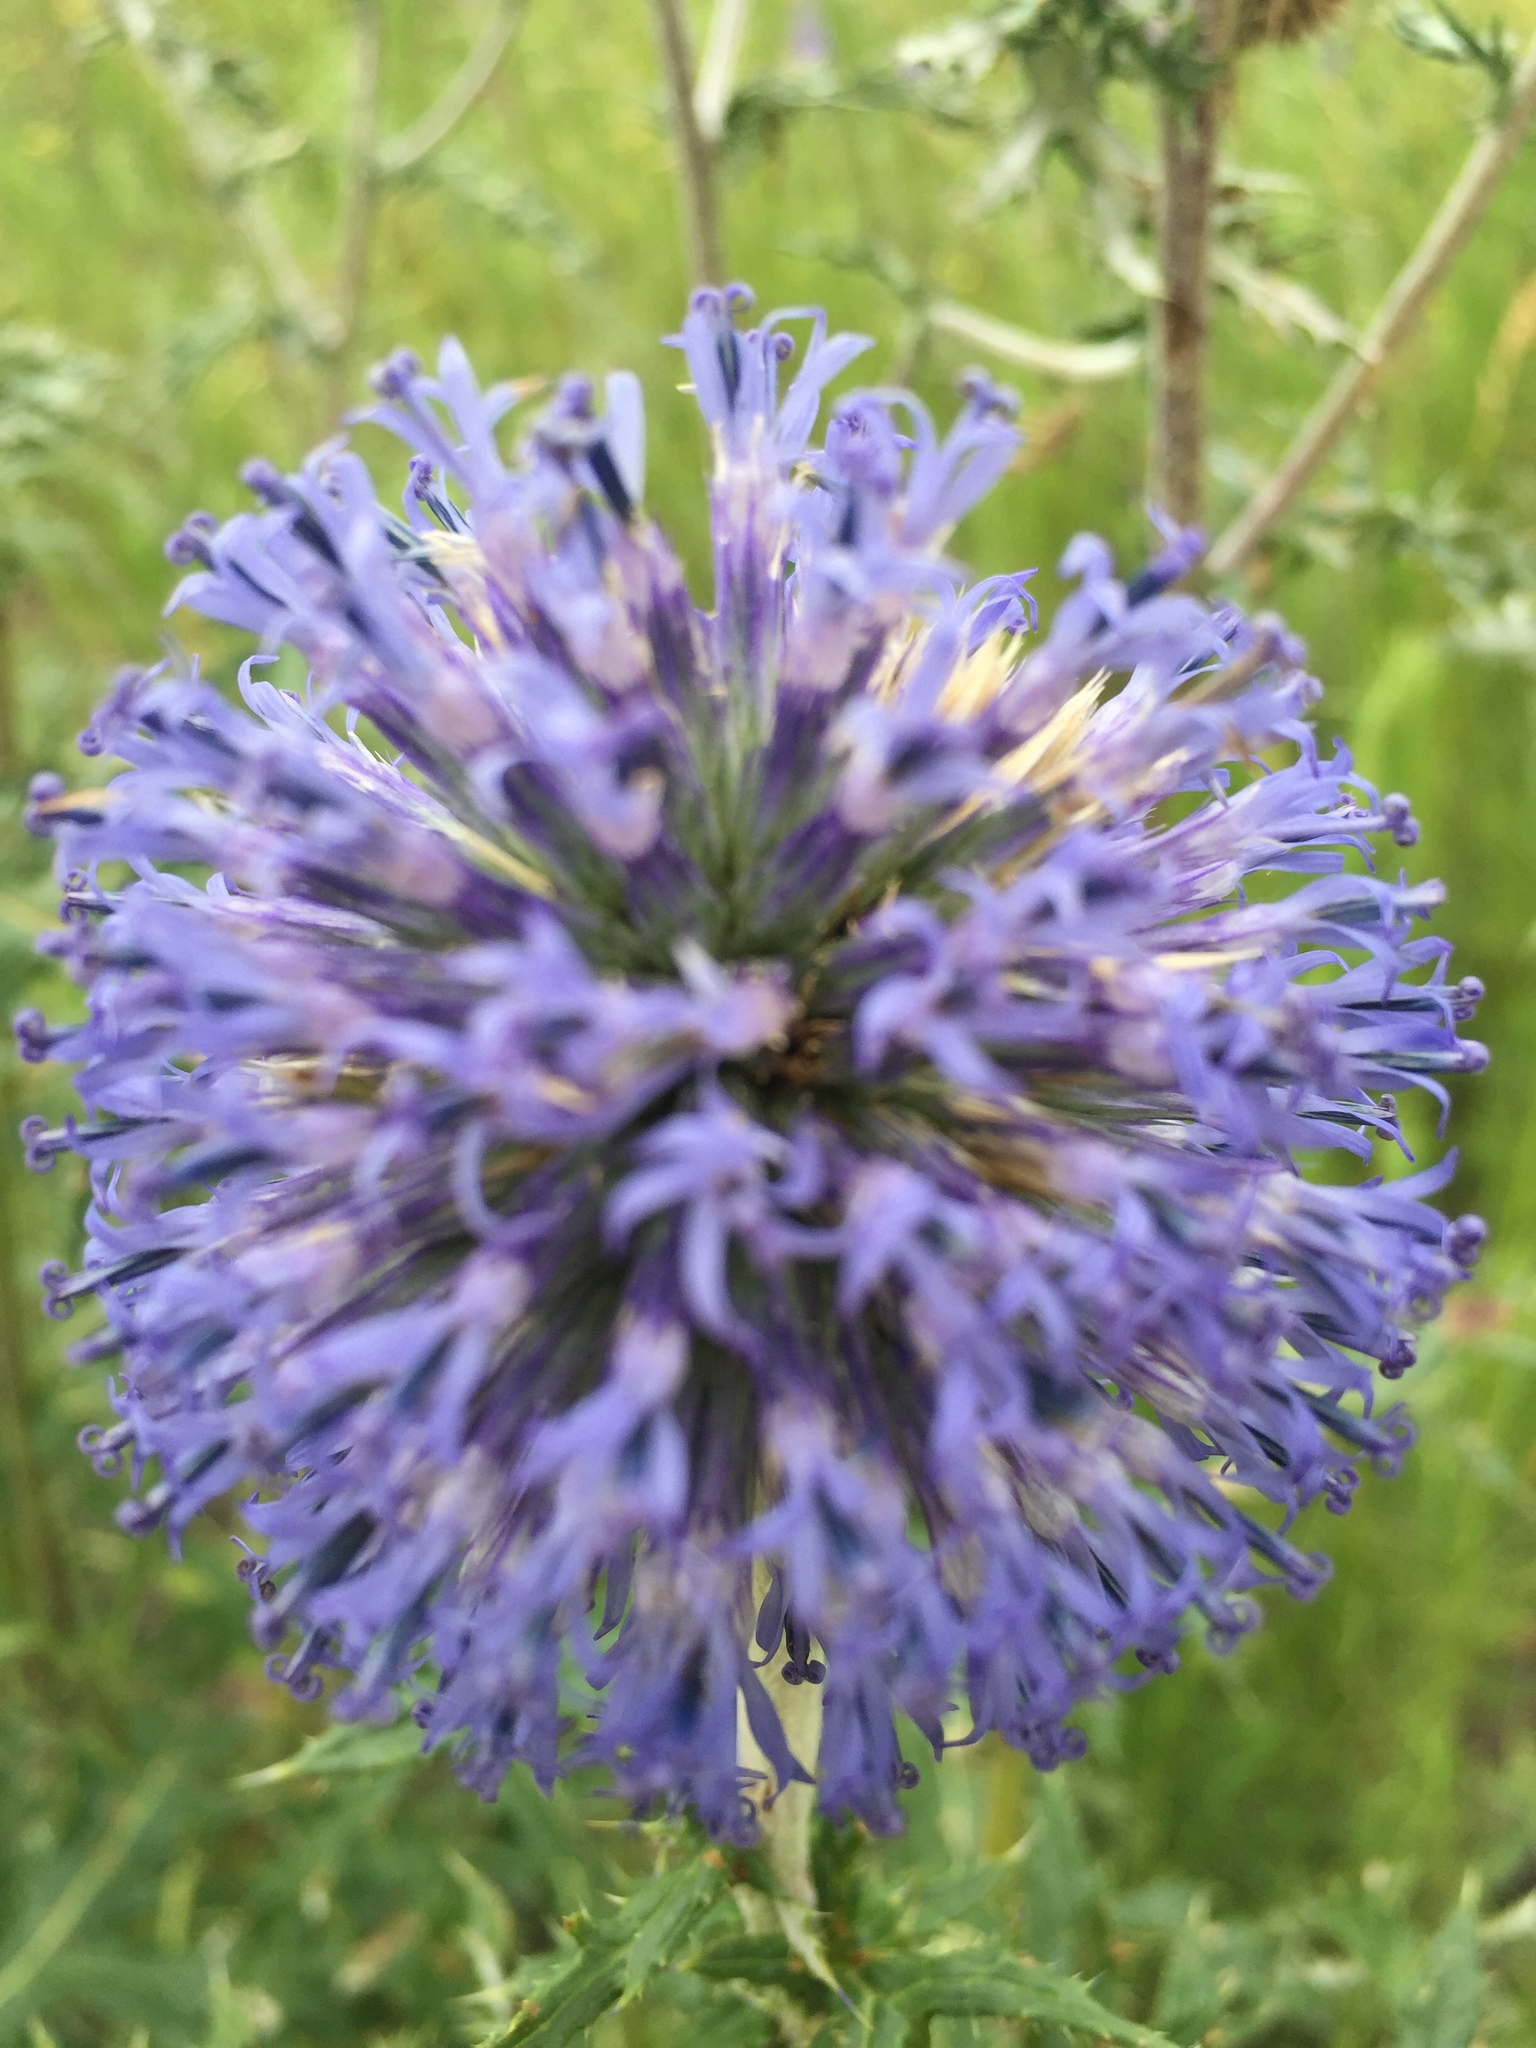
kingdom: Plantae
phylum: Tracheophyta
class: Magnoliopsida
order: Asterales
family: Asteraceae
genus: Echinops
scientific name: Echinops ritro
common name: Globe thistle
